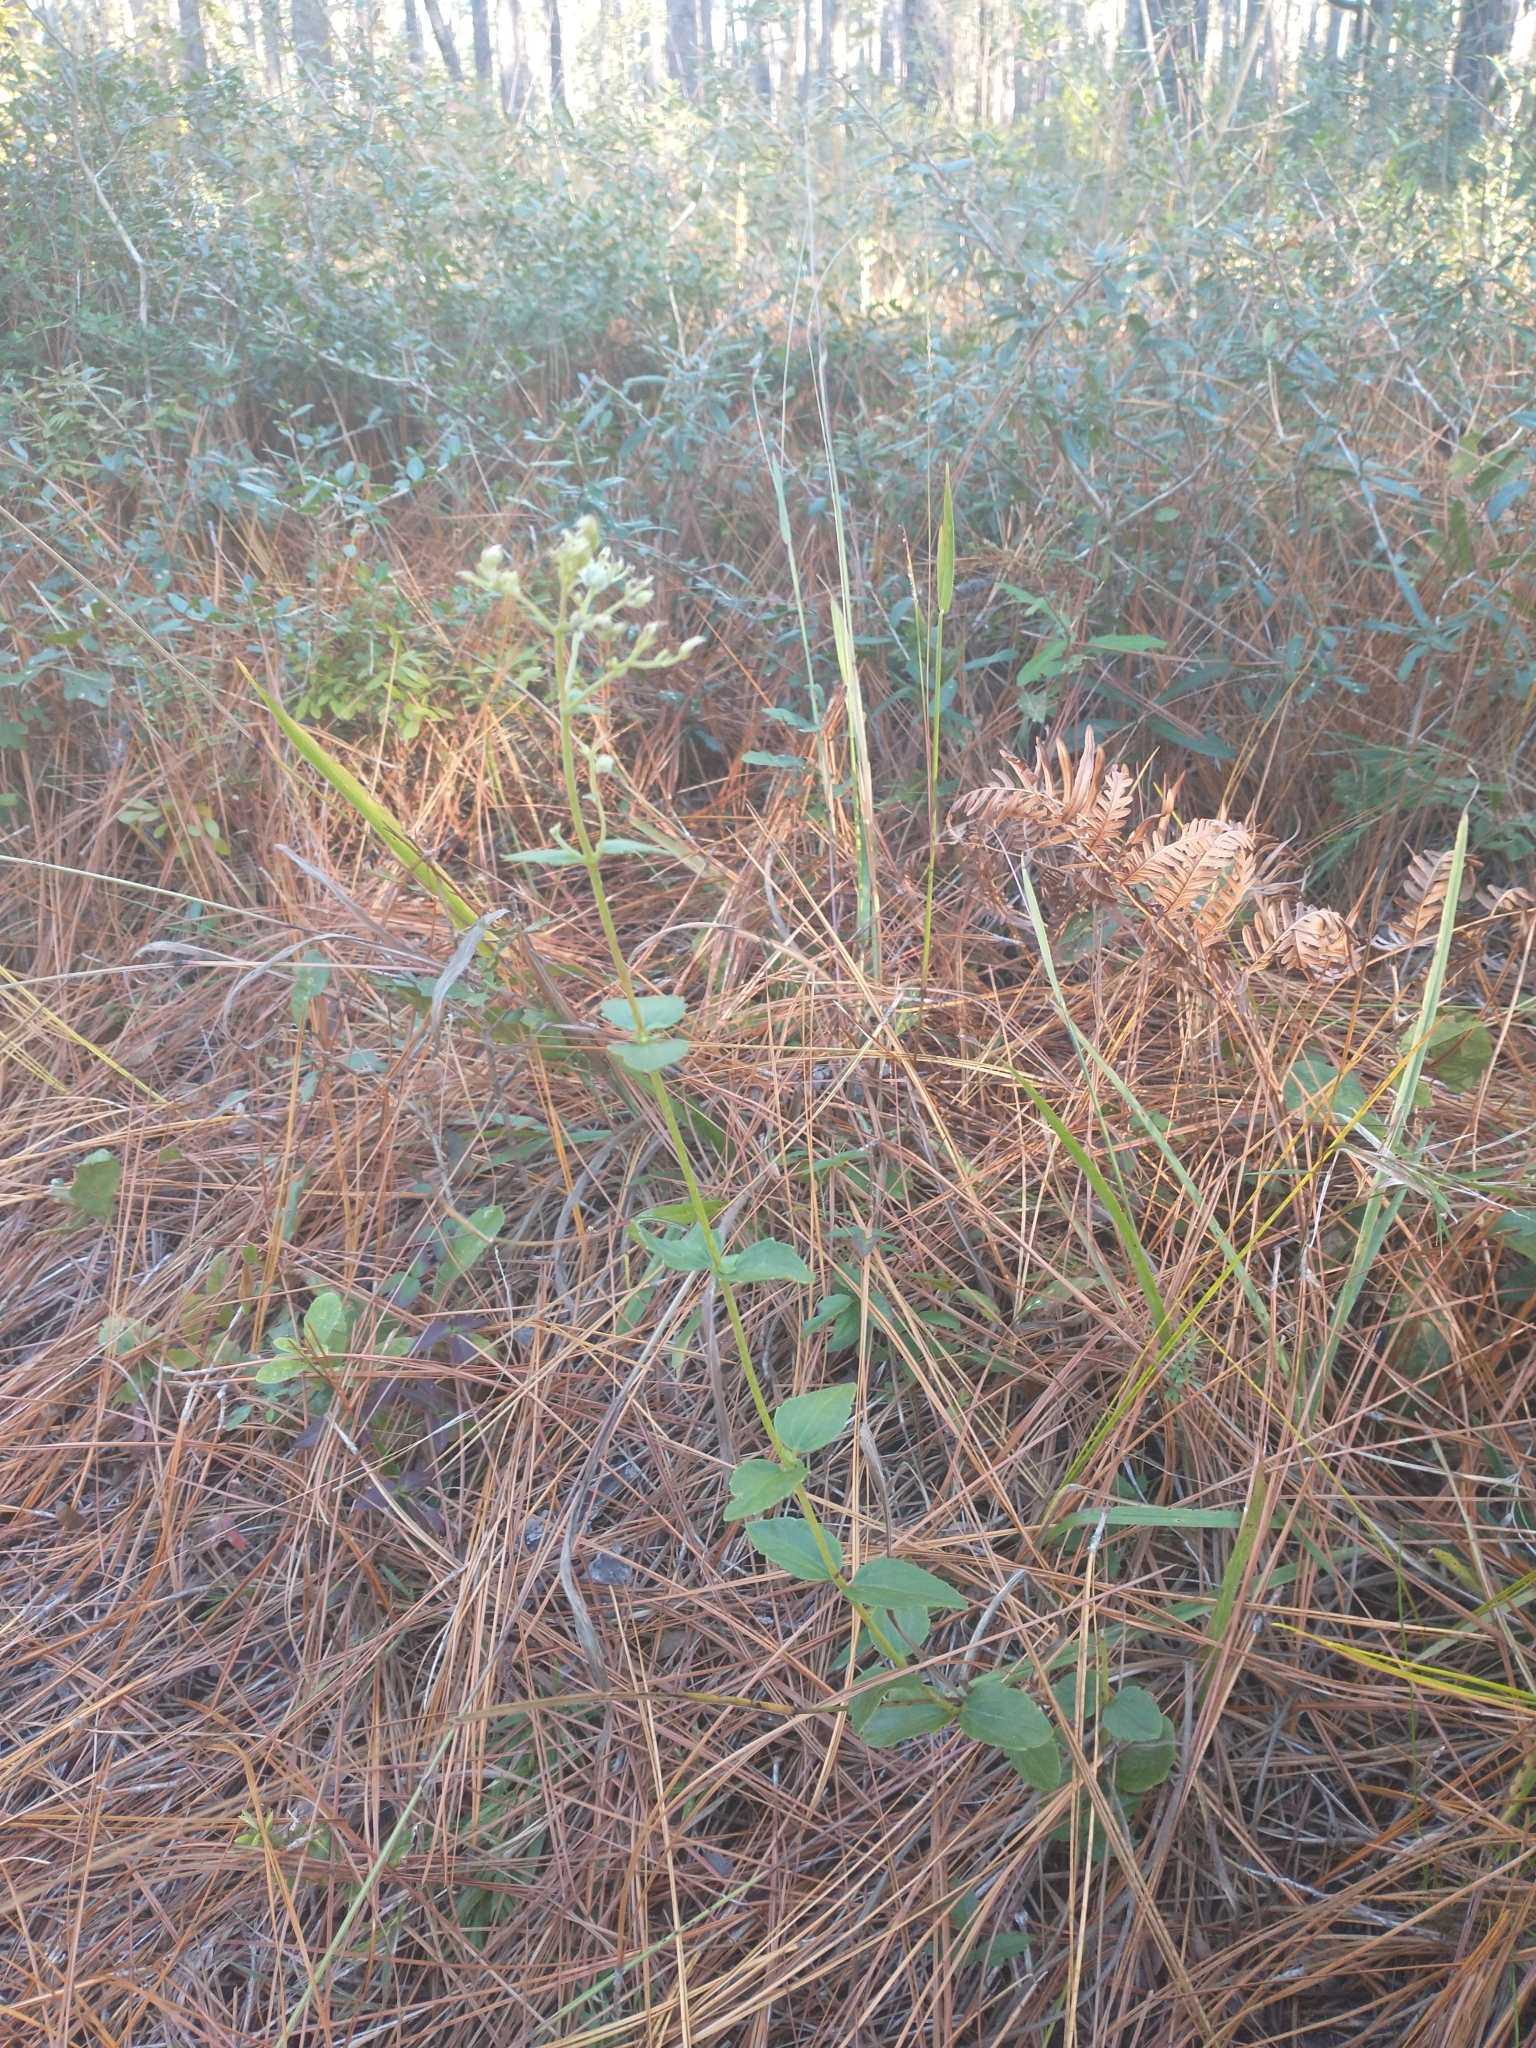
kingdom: Plantae
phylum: Tracheophyta
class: Magnoliopsida
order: Asterales
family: Asteraceae
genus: Ageratina
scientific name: Ageratina aromatica
